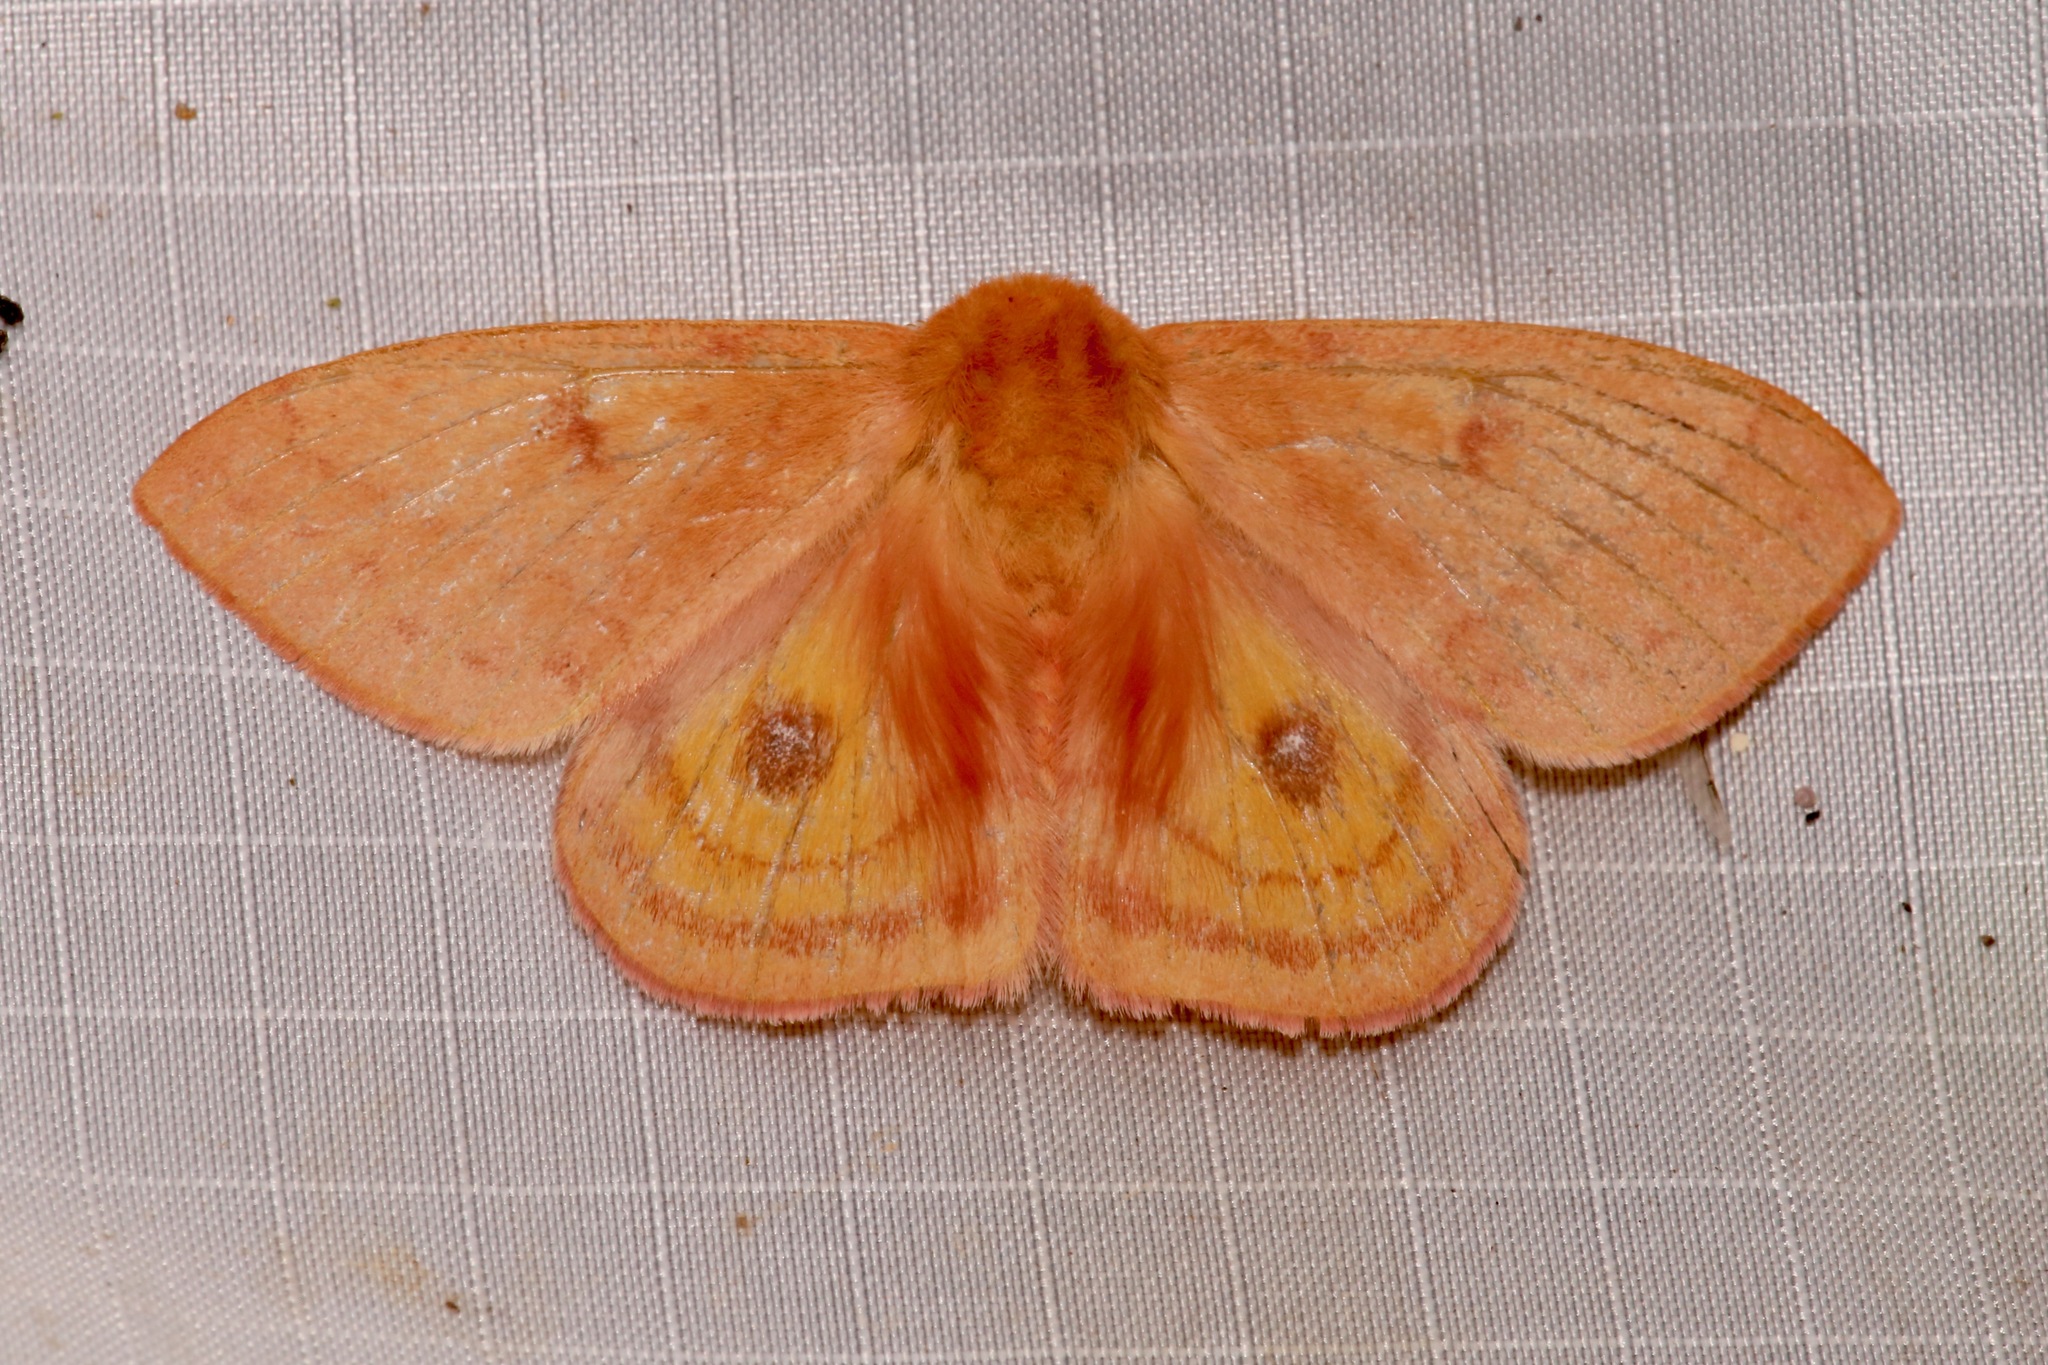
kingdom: Animalia
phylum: Arthropoda
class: Insecta
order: Lepidoptera
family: Saturniidae
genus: Automeris
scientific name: Automeris patagoniensis
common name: Patagonia eyed silkmoth
